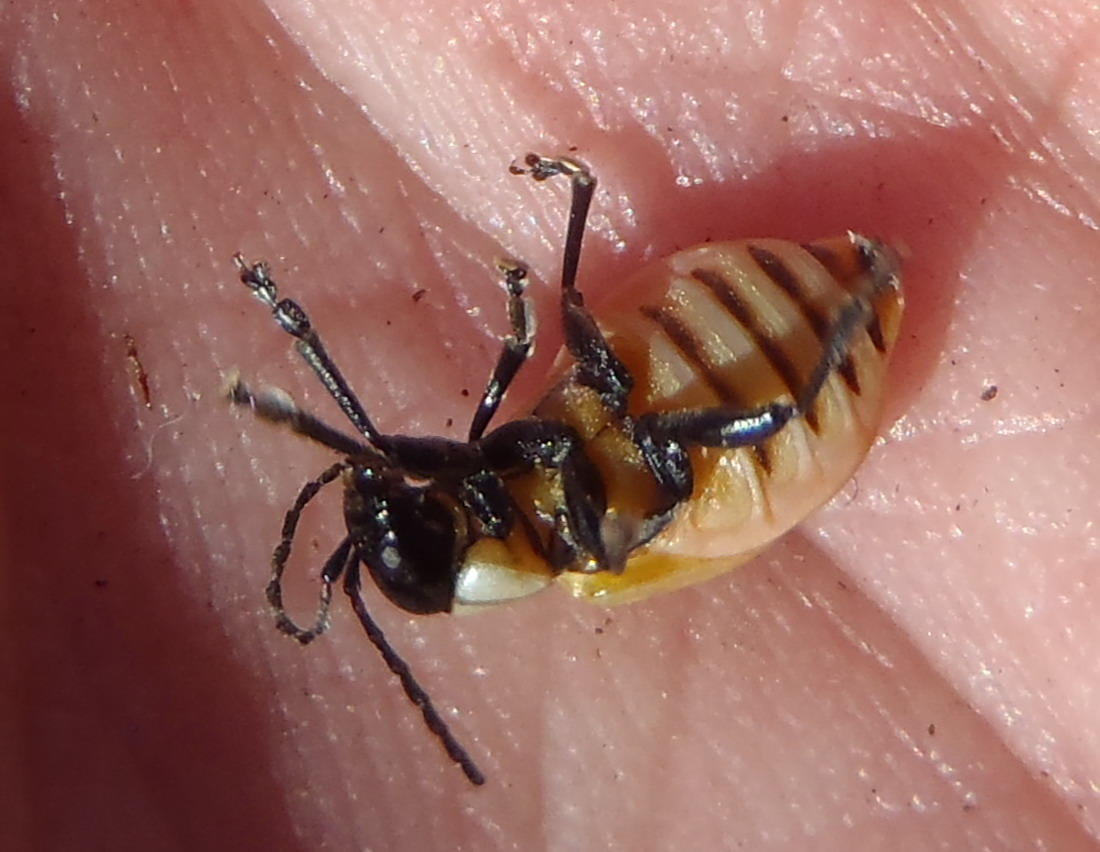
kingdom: Animalia
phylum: Arthropoda
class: Insecta
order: Coleoptera
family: Chrysomelidae
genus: Pseudorupilia
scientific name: Pseudorupilia
